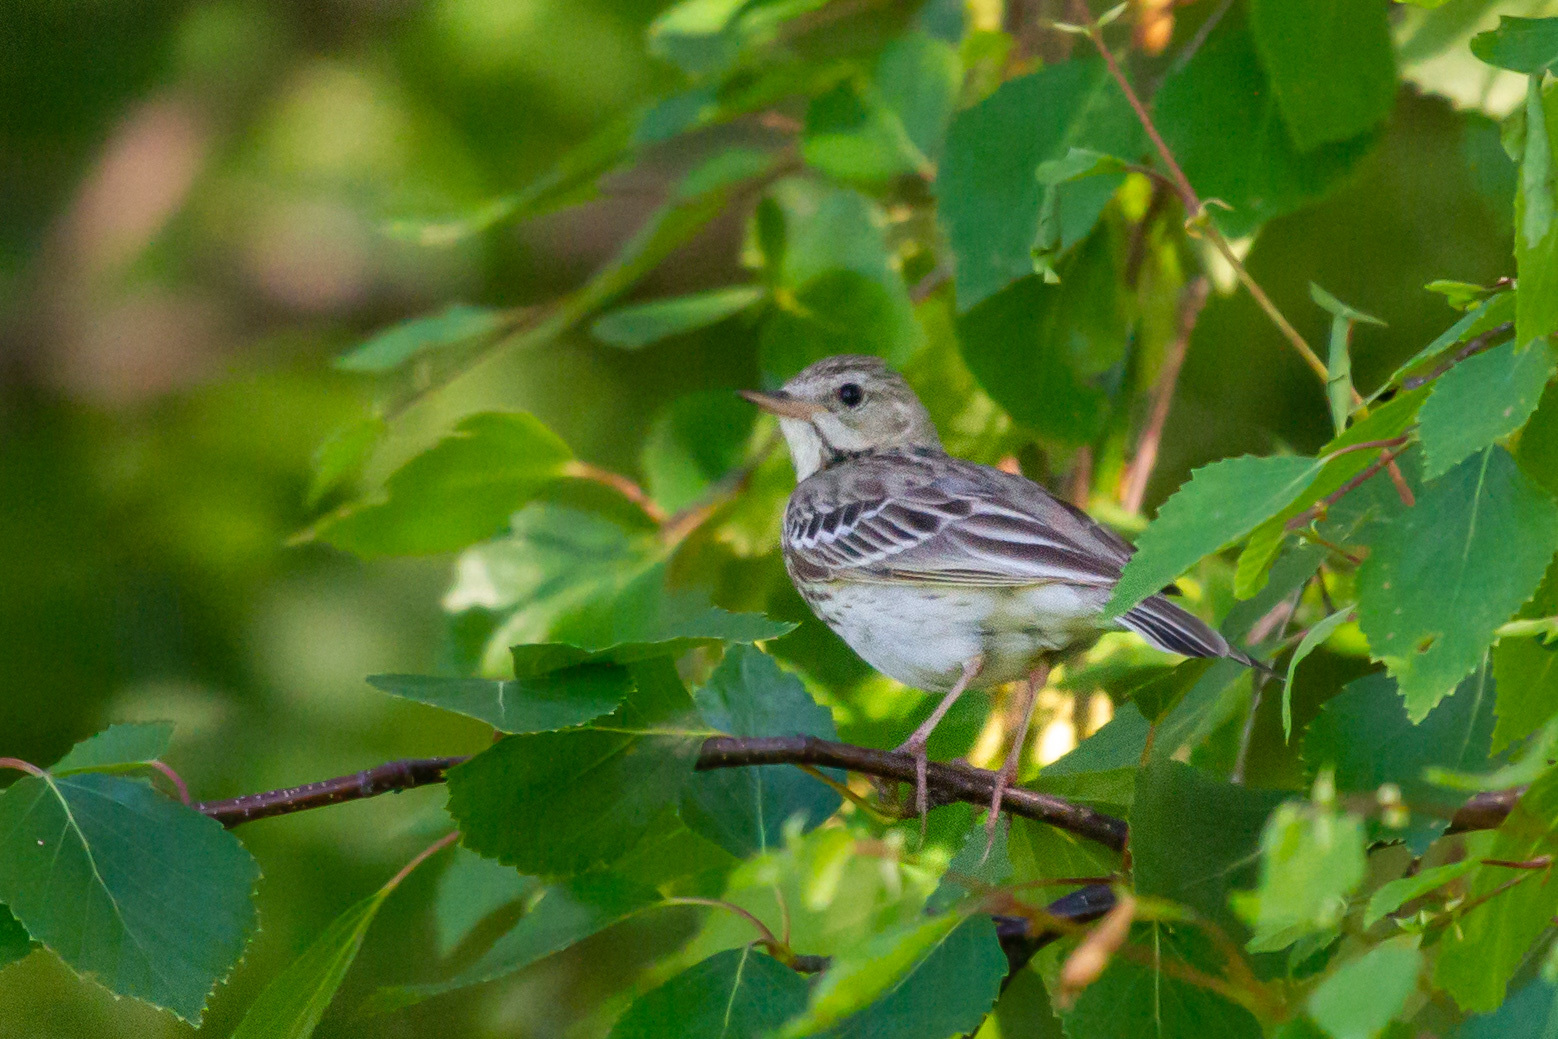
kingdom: Animalia
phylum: Chordata
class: Aves
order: Passeriformes
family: Motacillidae
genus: Anthus
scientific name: Anthus trivialis
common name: Tree pipit
